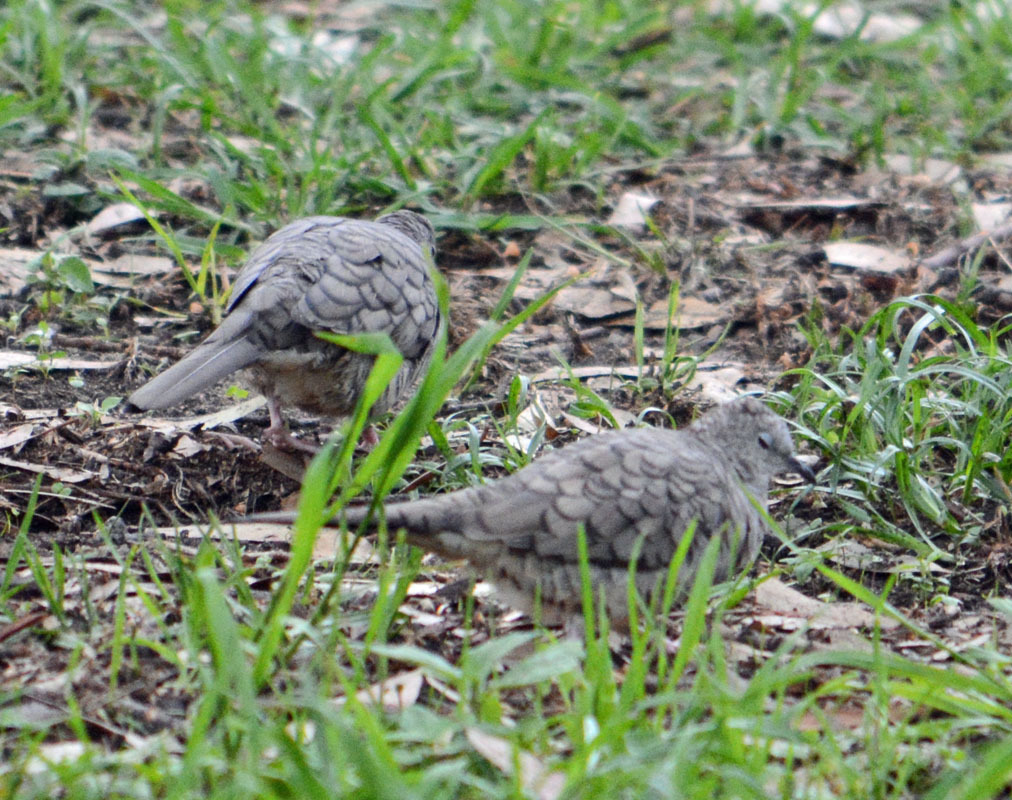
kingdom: Animalia
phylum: Chordata
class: Aves
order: Columbiformes
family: Columbidae
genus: Columbina
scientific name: Columbina inca
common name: Inca dove
